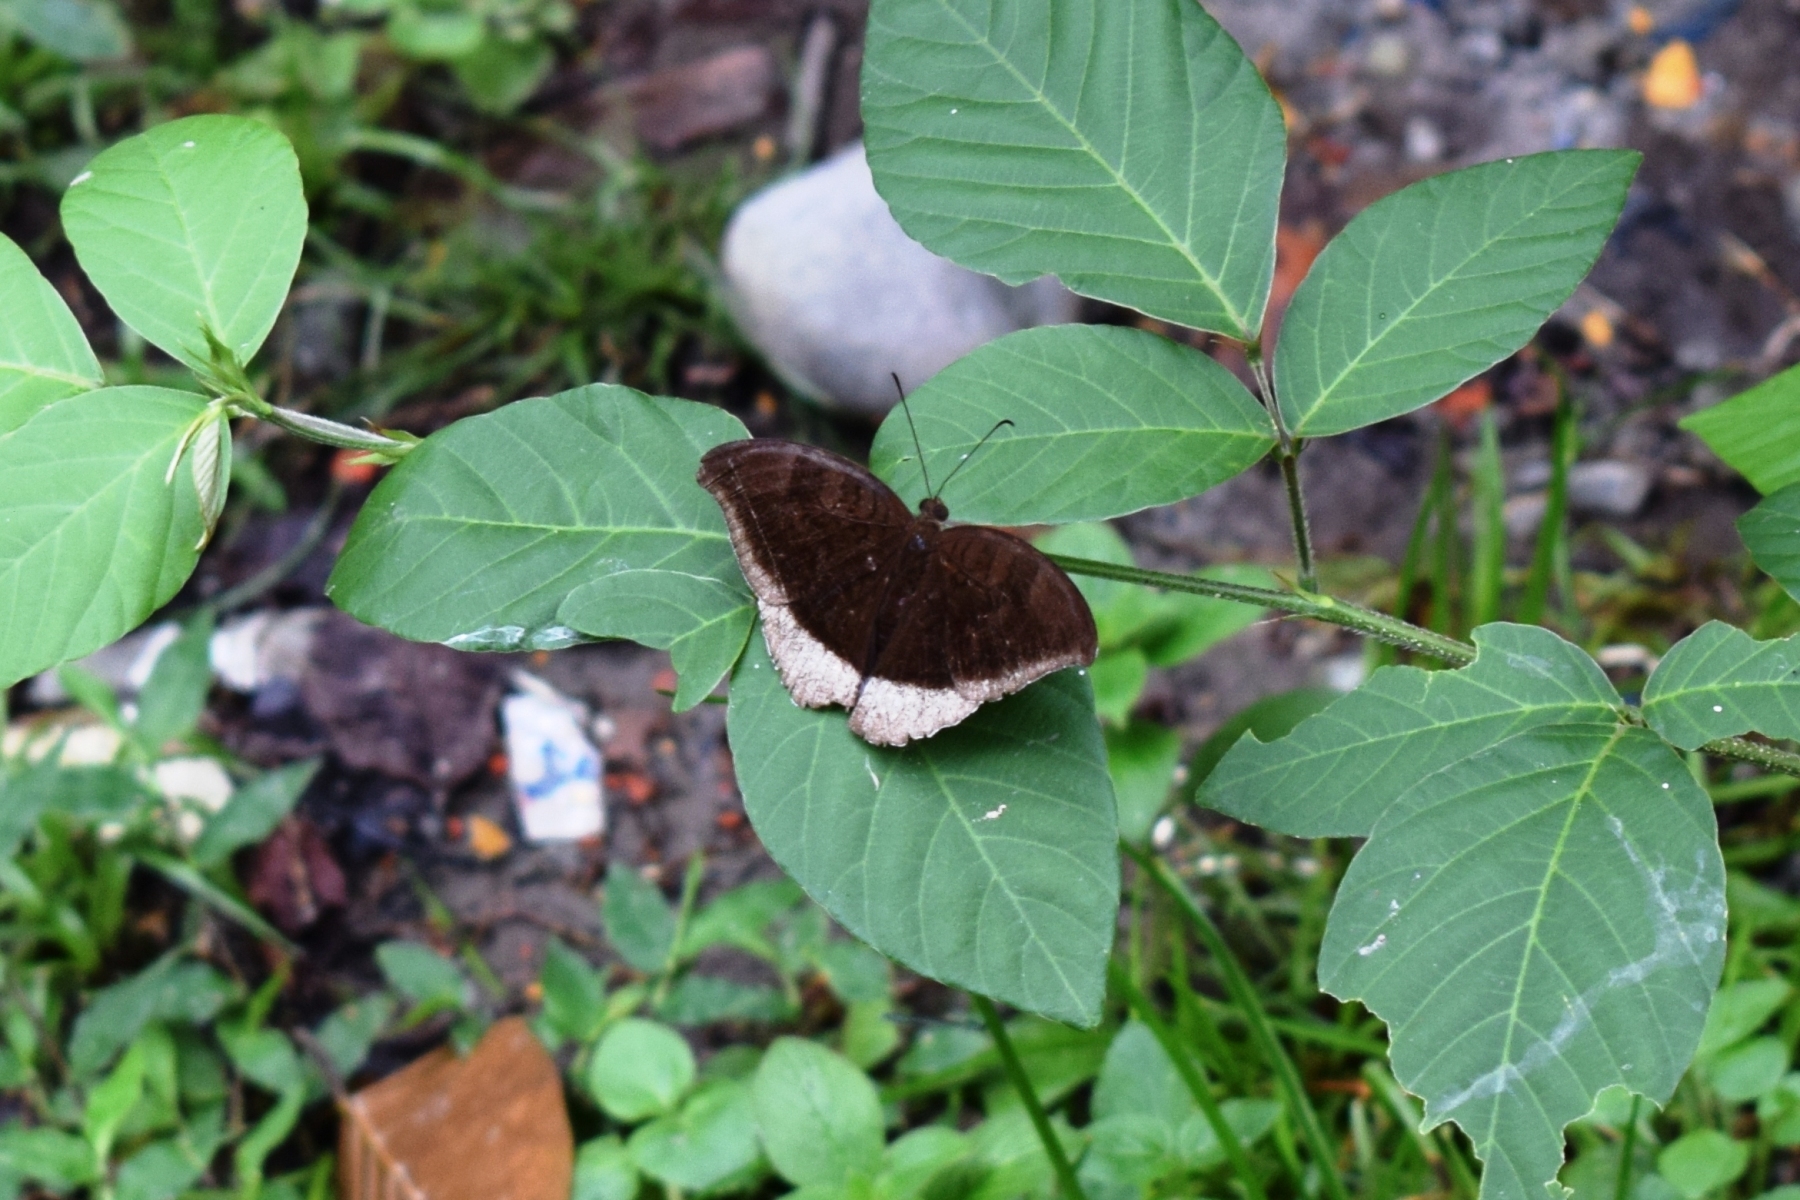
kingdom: Animalia
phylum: Arthropoda
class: Insecta
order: Lepidoptera
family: Nymphalidae
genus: Tanaecia
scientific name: Tanaecia lepidea
